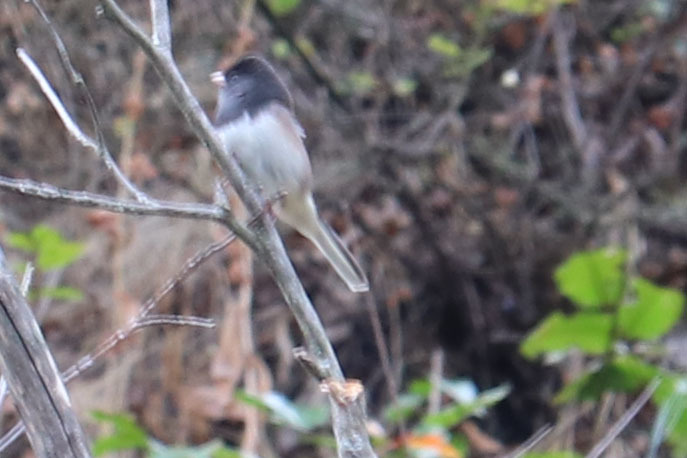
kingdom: Animalia
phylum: Chordata
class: Aves
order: Passeriformes
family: Passerellidae
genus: Junco
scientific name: Junco hyemalis
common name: Dark-eyed junco
